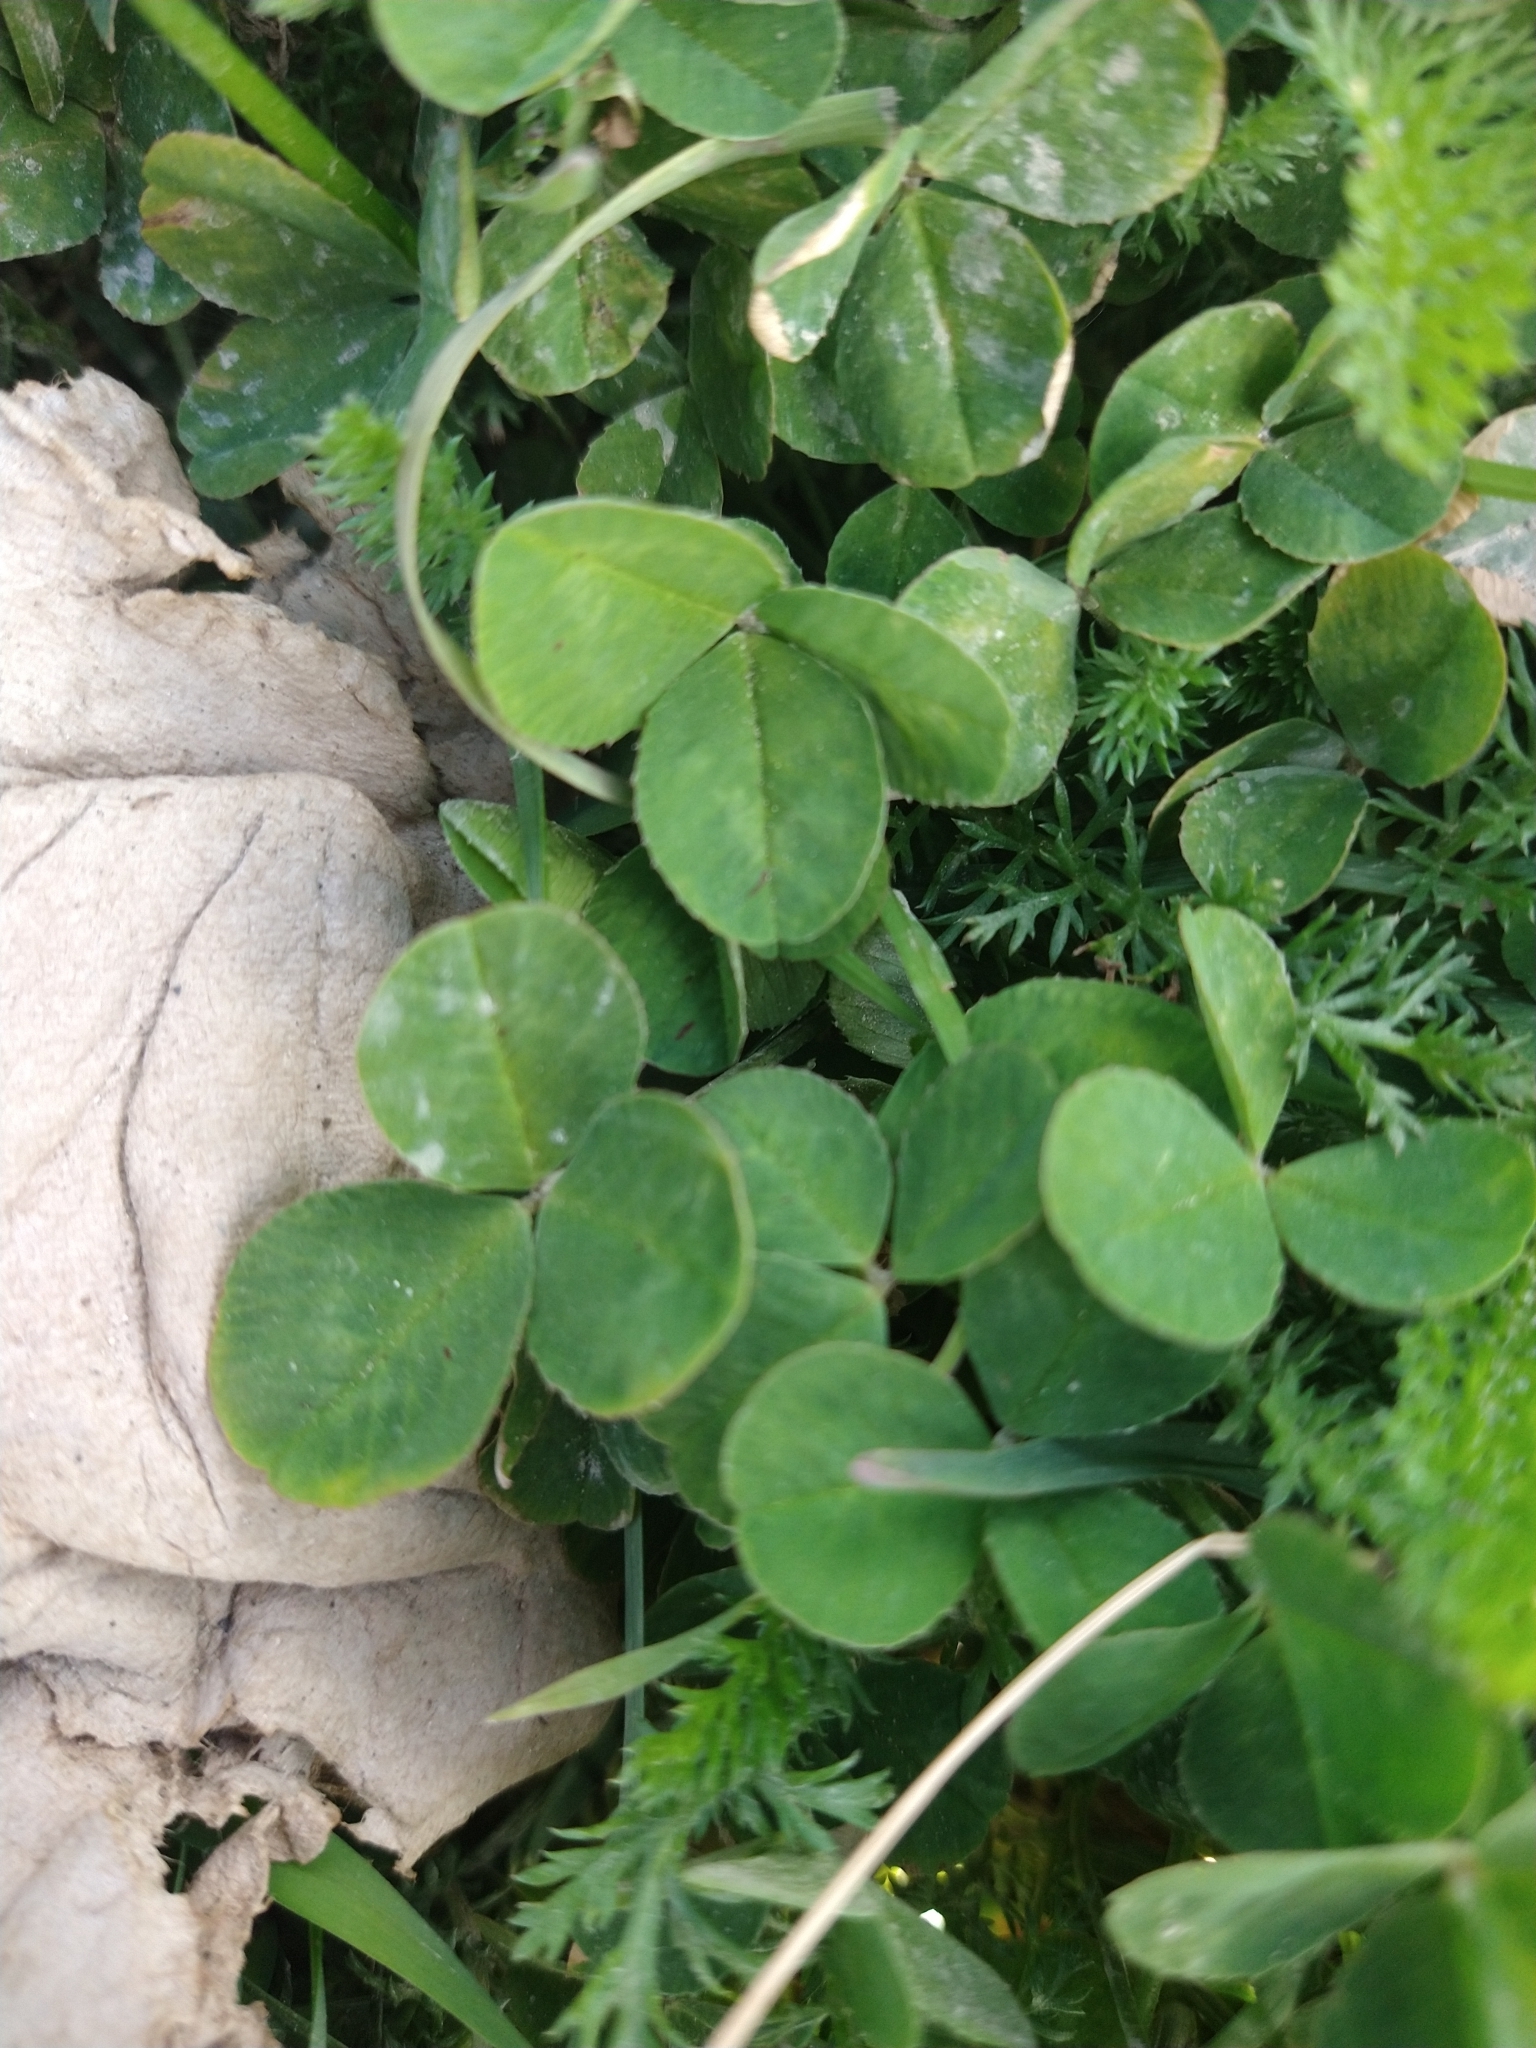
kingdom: Plantae
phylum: Tracheophyta
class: Magnoliopsida
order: Fabales
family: Fabaceae
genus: Trifolium
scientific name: Trifolium repens
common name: White clover
